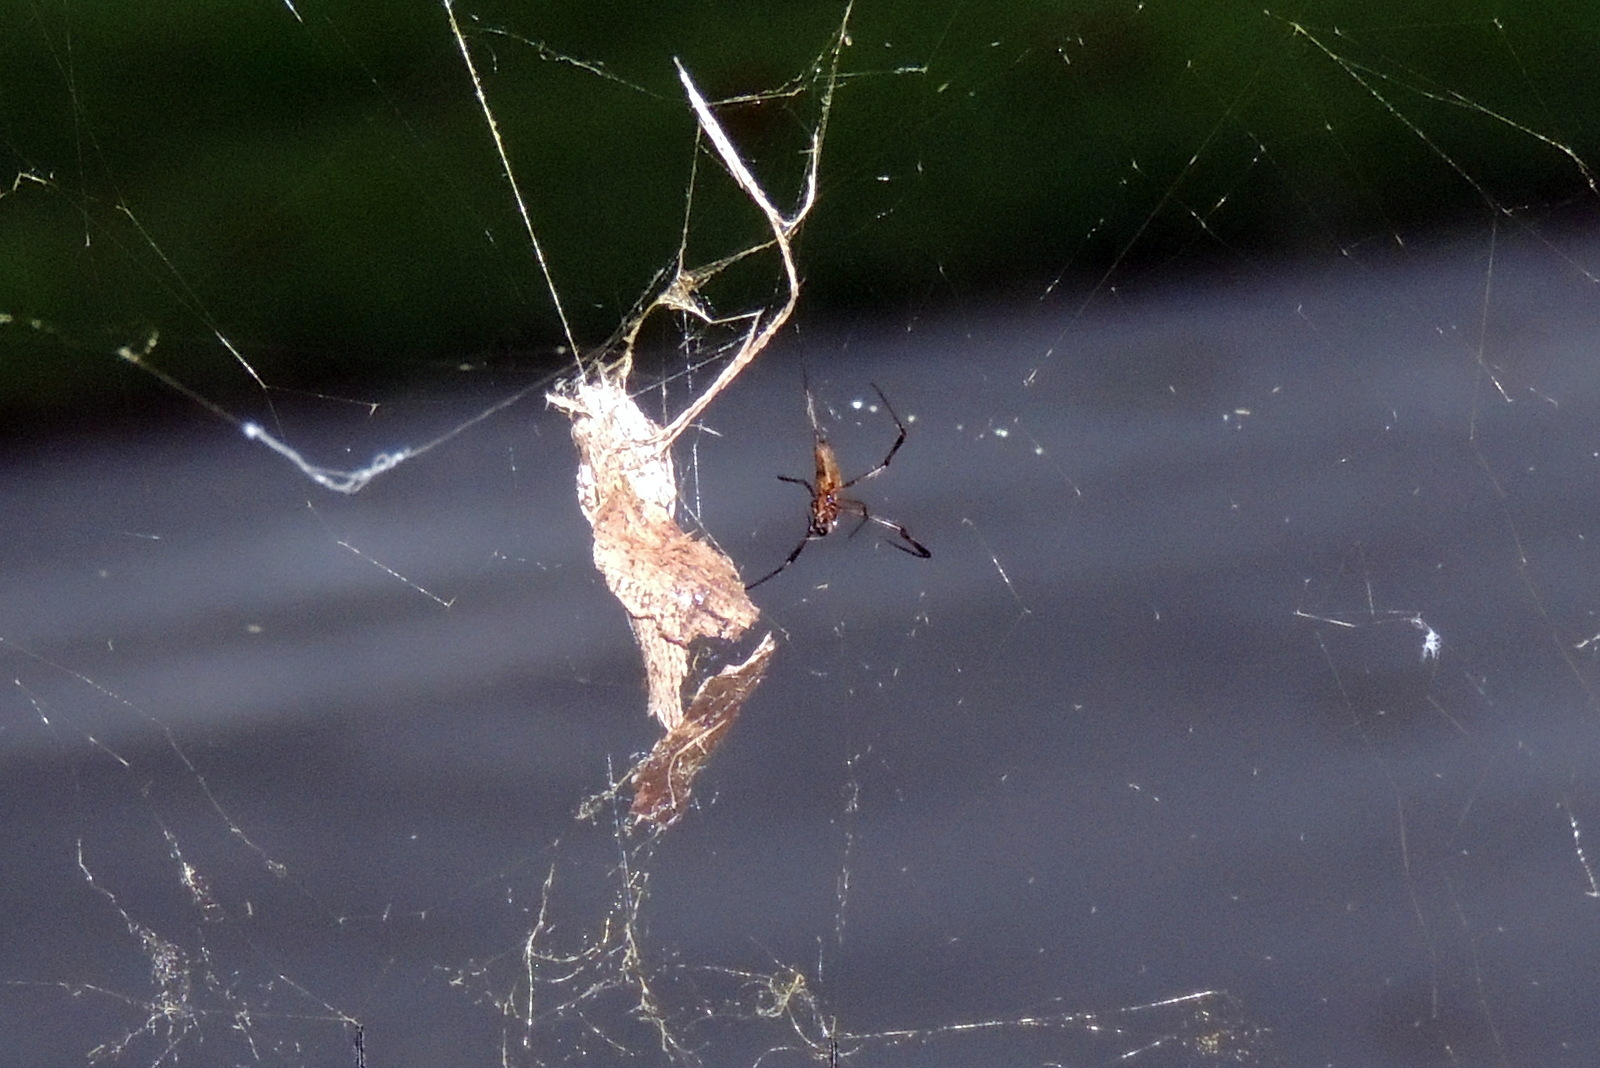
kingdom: Animalia
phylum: Arthropoda
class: Arachnida
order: Araneae
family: Araneidae
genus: Trichonephila
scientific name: Trichonephila clavipes
